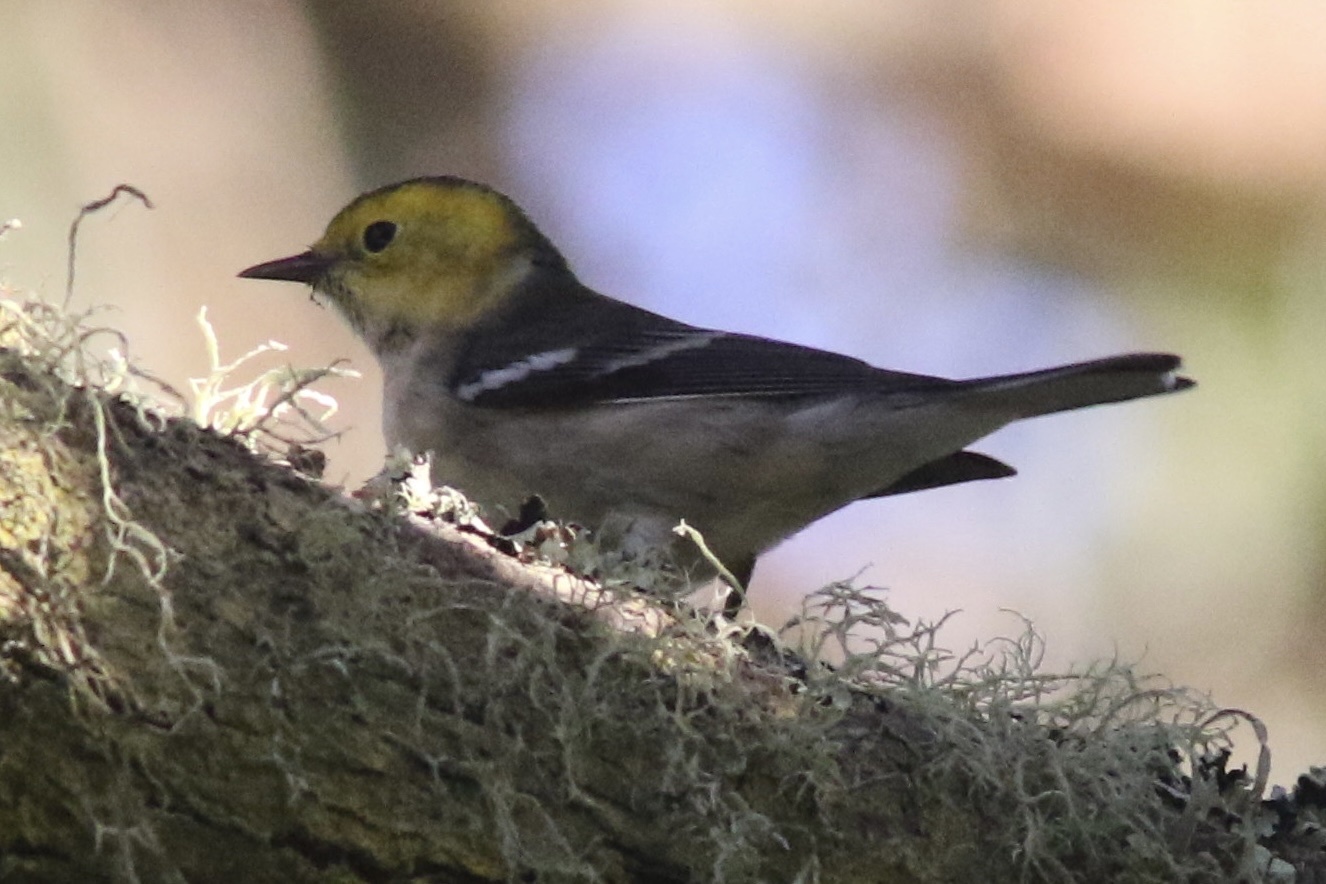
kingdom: Animalia
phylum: Chordata
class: Aves
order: Passeriformes
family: Parulidae
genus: Setophaga
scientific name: Setophaga occidentalis
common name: Hermit warbler
